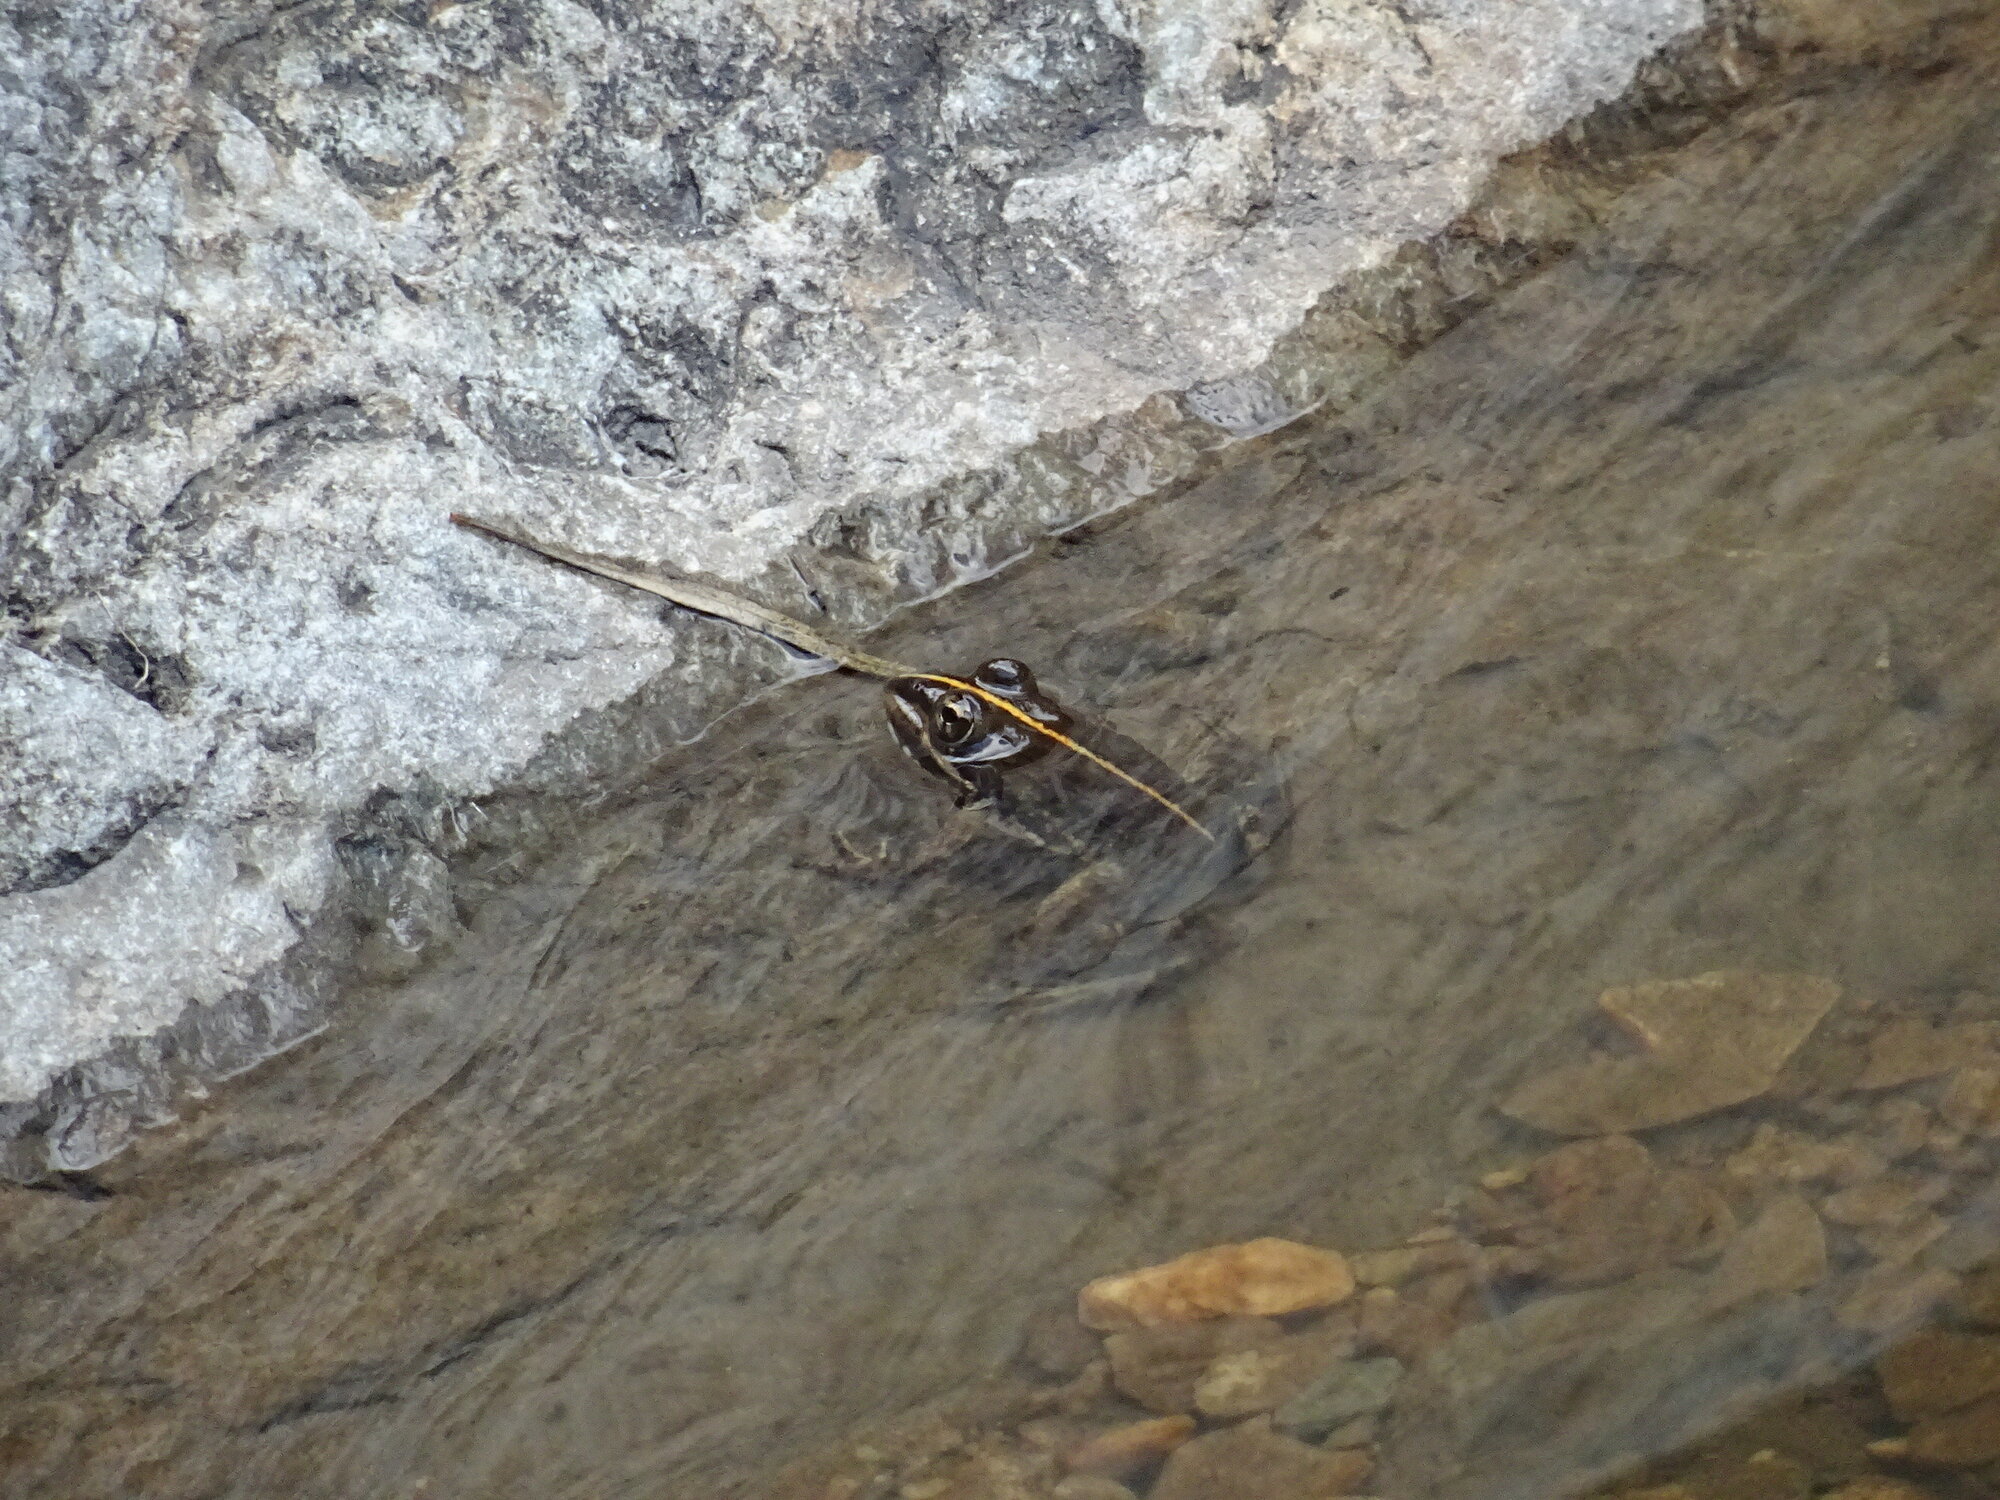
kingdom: Animalia
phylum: Chordata
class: Amphibia
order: Anura
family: Pyxicephalidae
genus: Amietia
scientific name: Amietia fuscigula
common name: Cape rana
